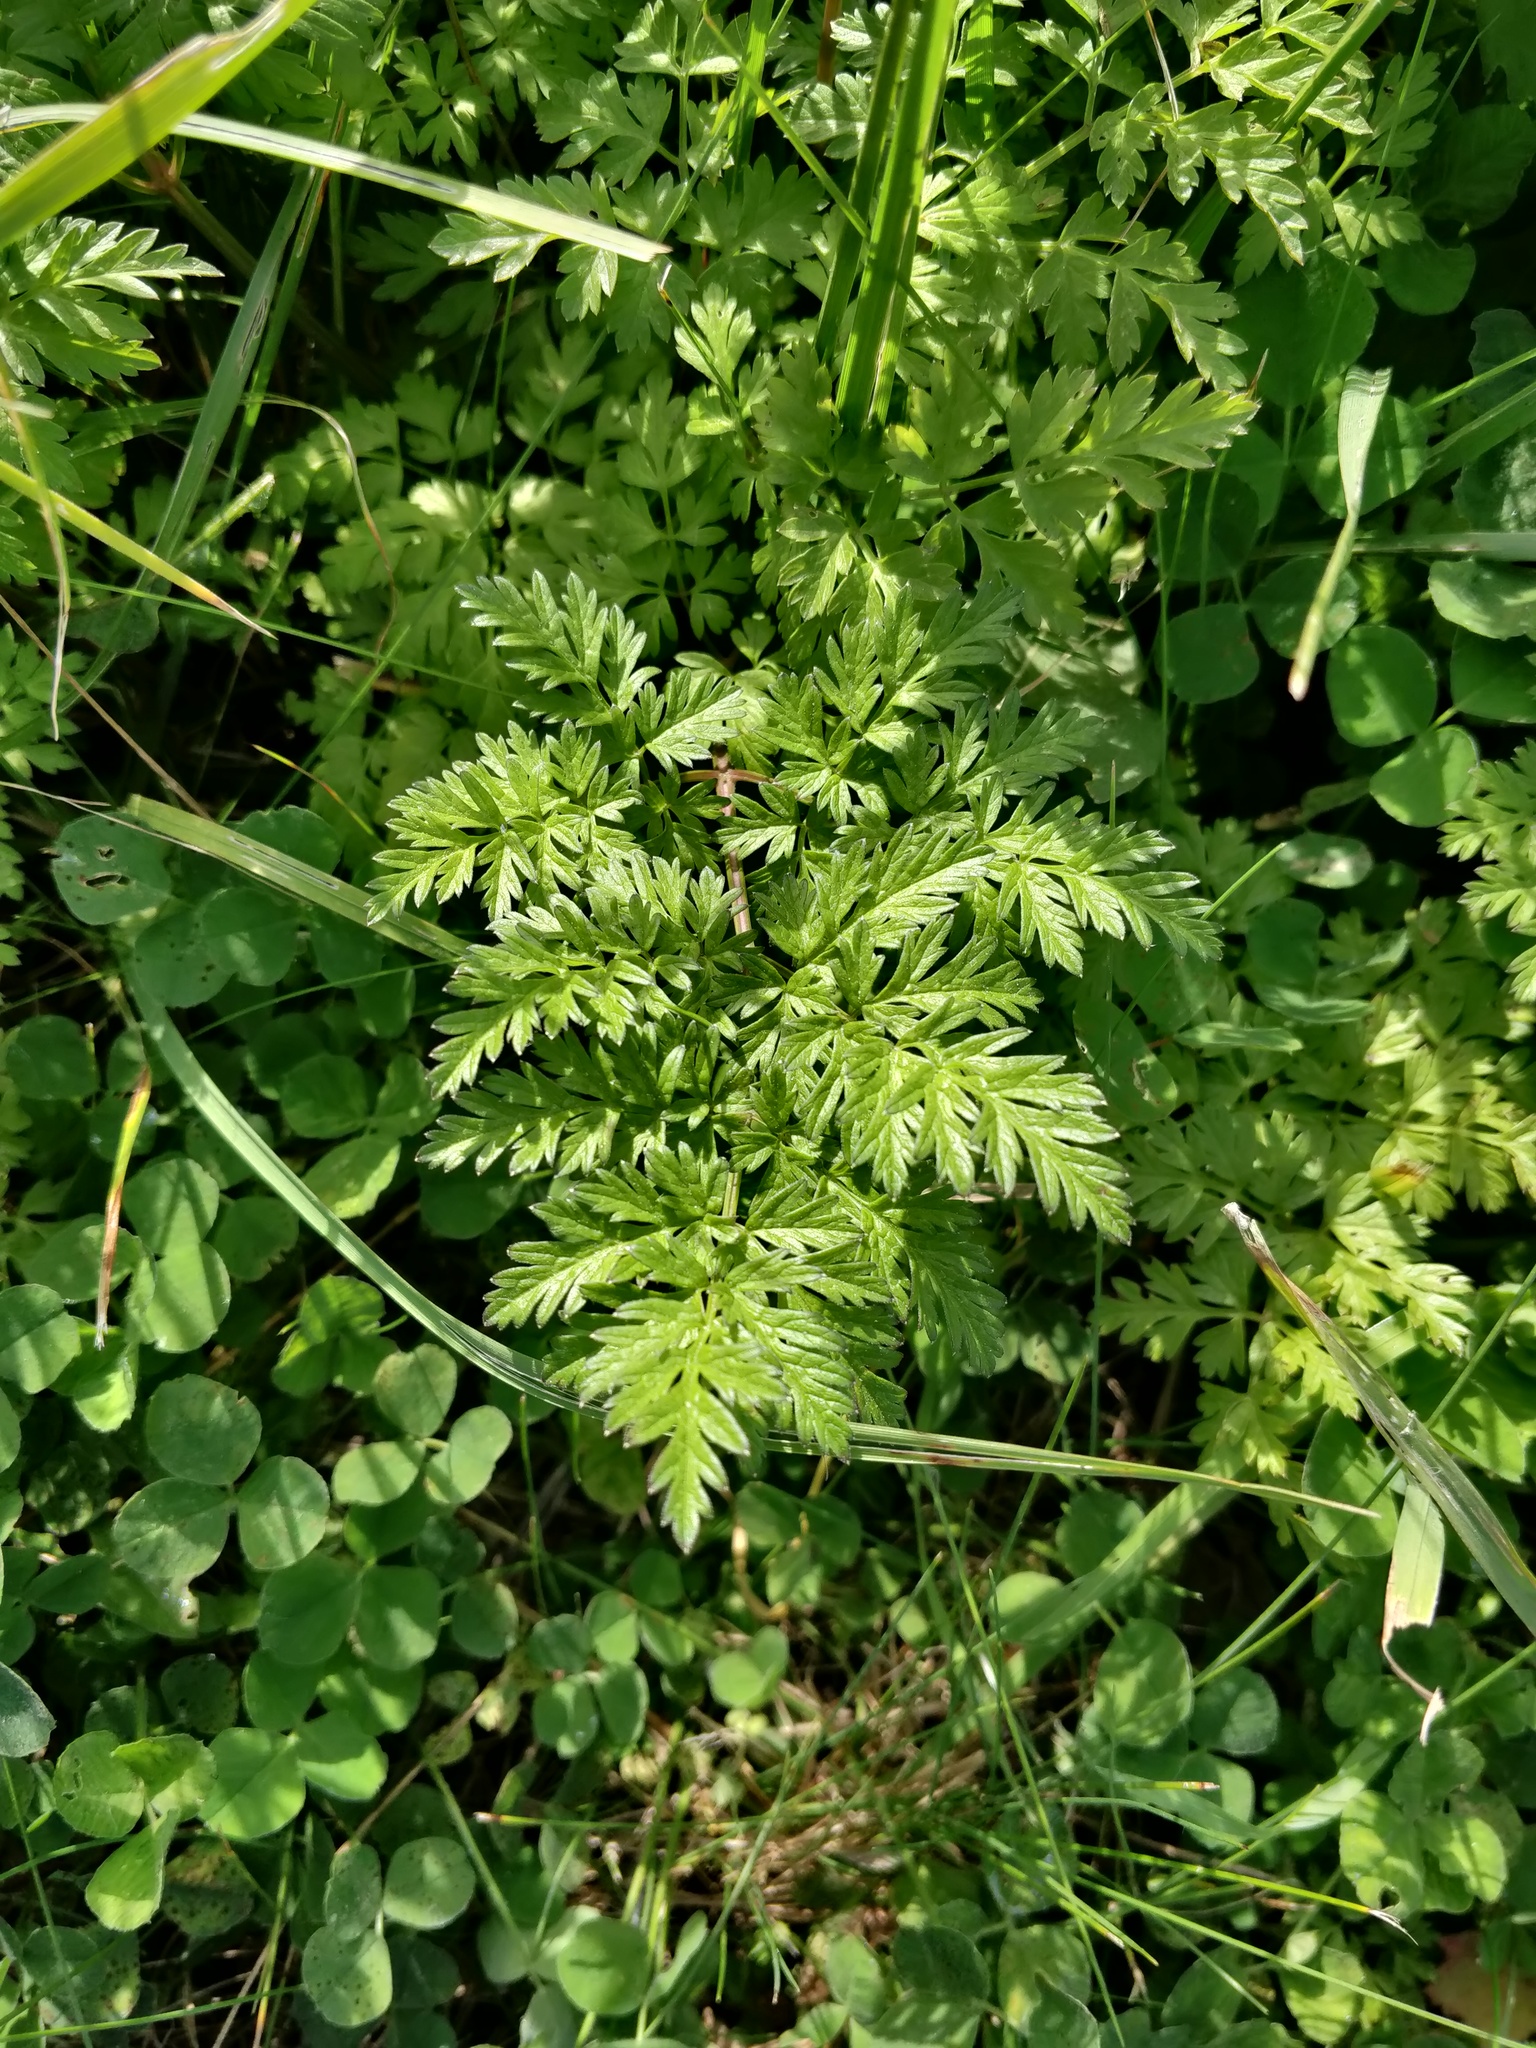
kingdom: Plantae
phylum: Tracheophyta
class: Magnoliopsida
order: Apiales
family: Apiaceae
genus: Anthriscus
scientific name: Anthriscus sylvestris
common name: Cow parsley
